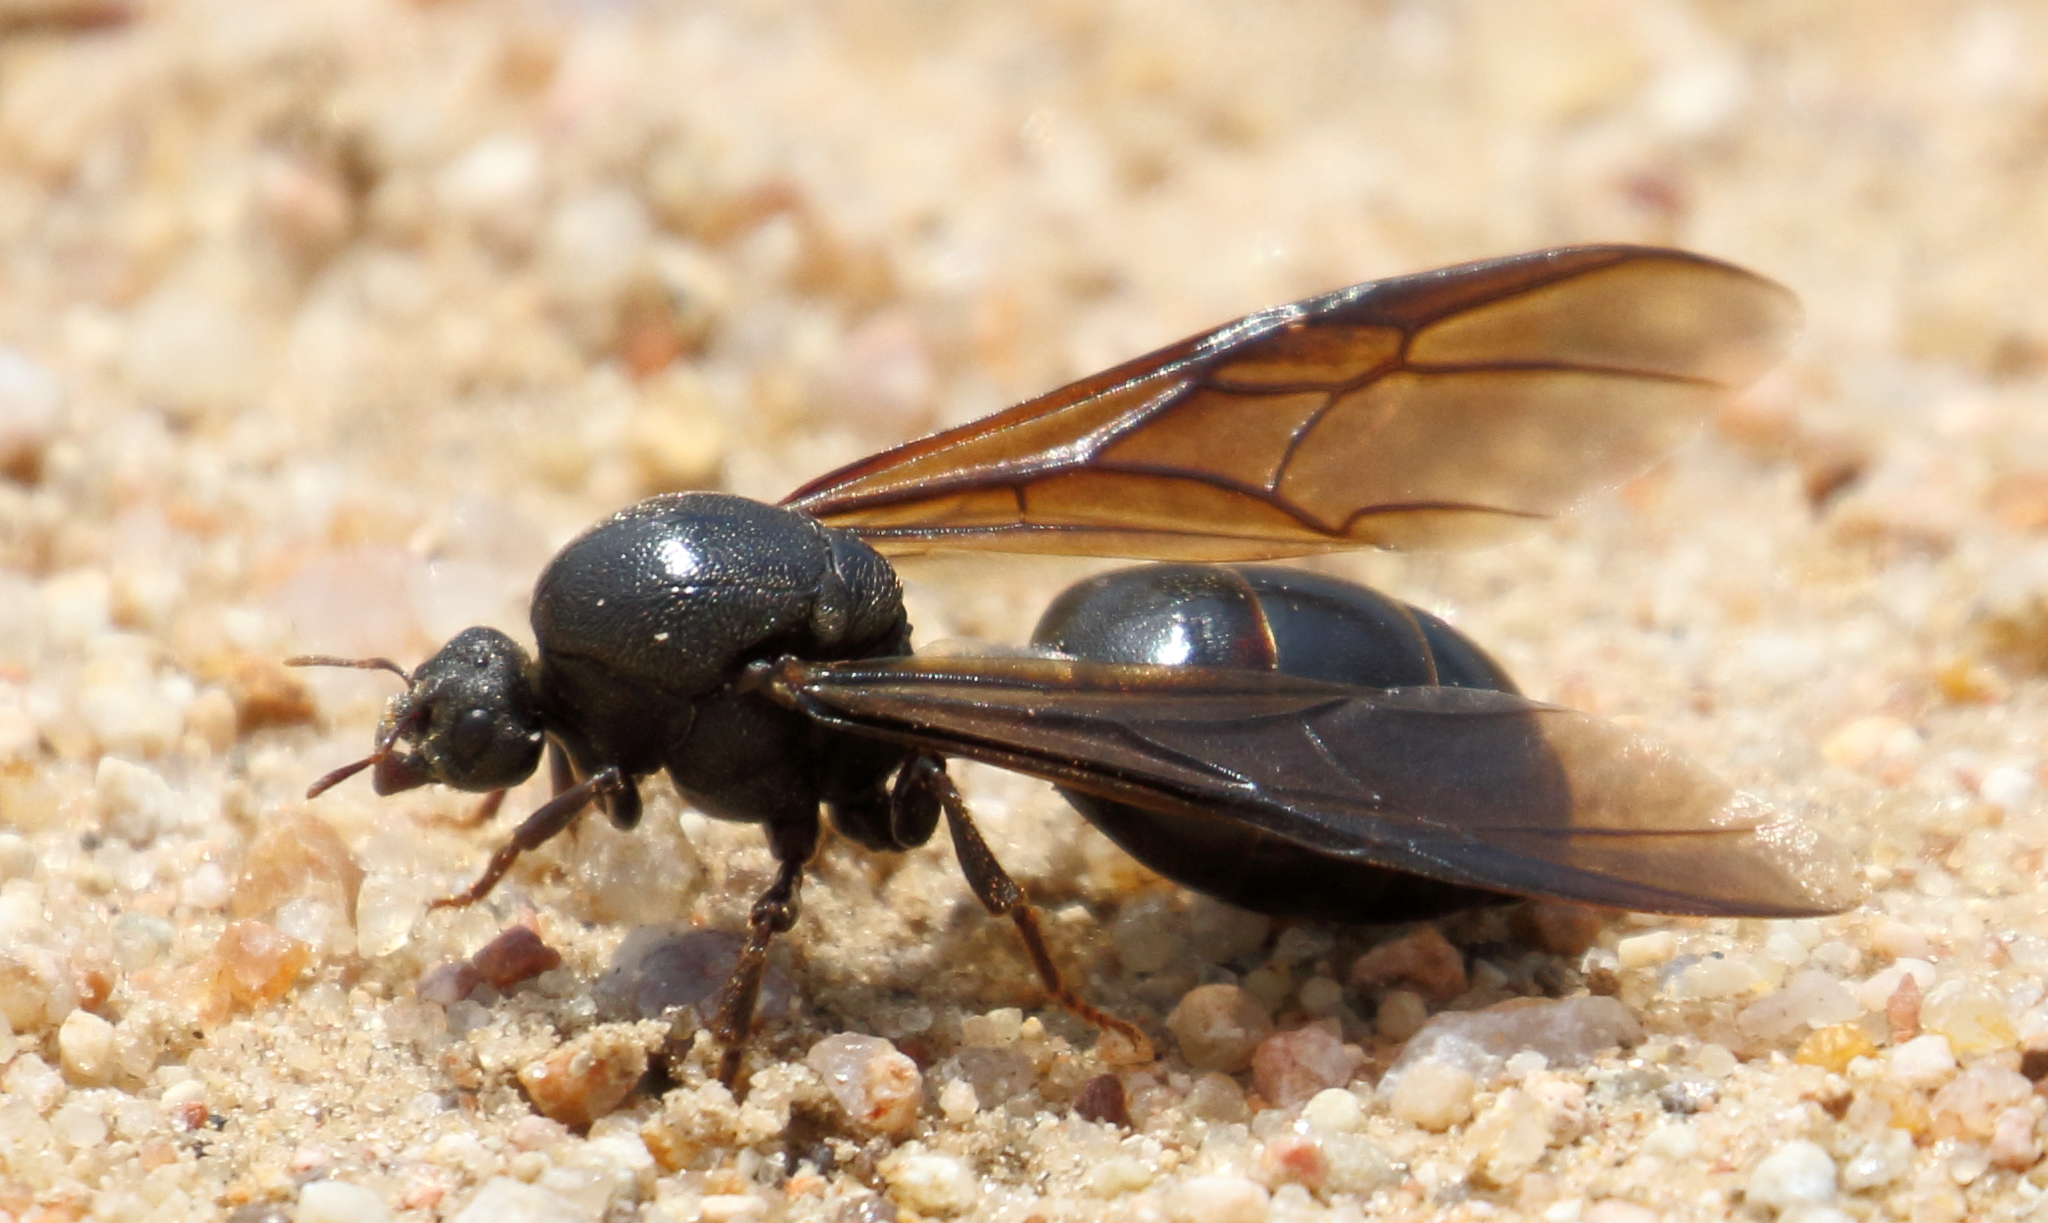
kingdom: Animalia
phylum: Arthropoda
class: Insecta
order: Hymenoptera
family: Formicidae
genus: Carebara
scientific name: Carebara vidua
